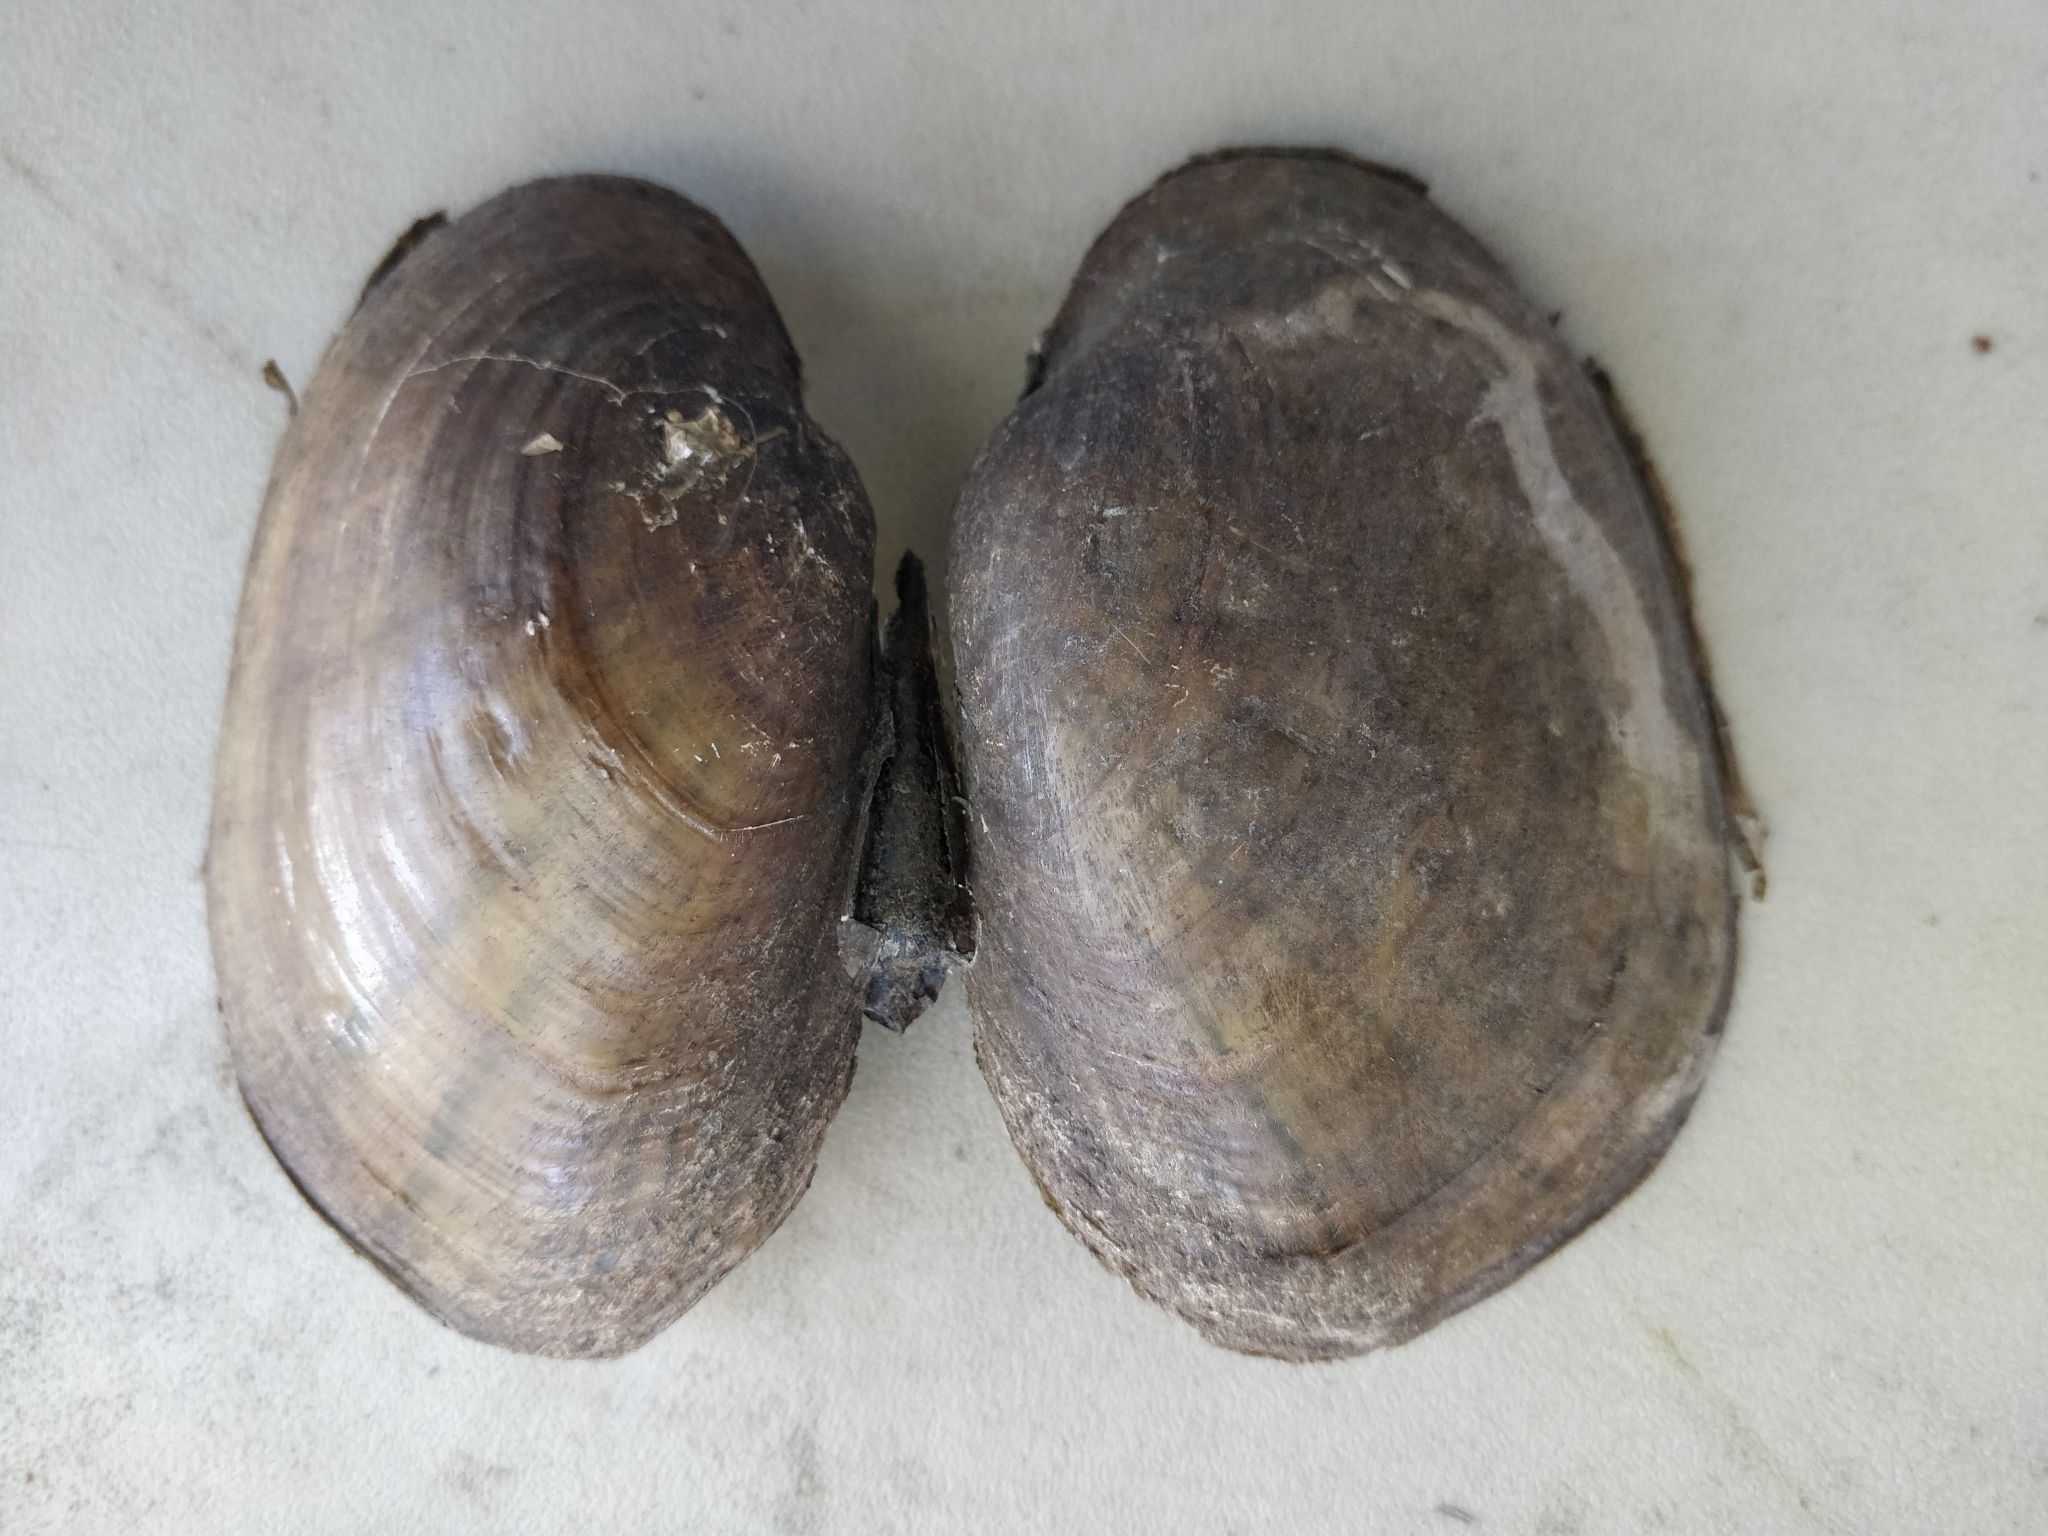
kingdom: Animalia
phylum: Mollusca
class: Bivalvia
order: Unionida
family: Unionidae
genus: Lampsilis
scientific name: Lampsilis cardium
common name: Plain pocketbook
